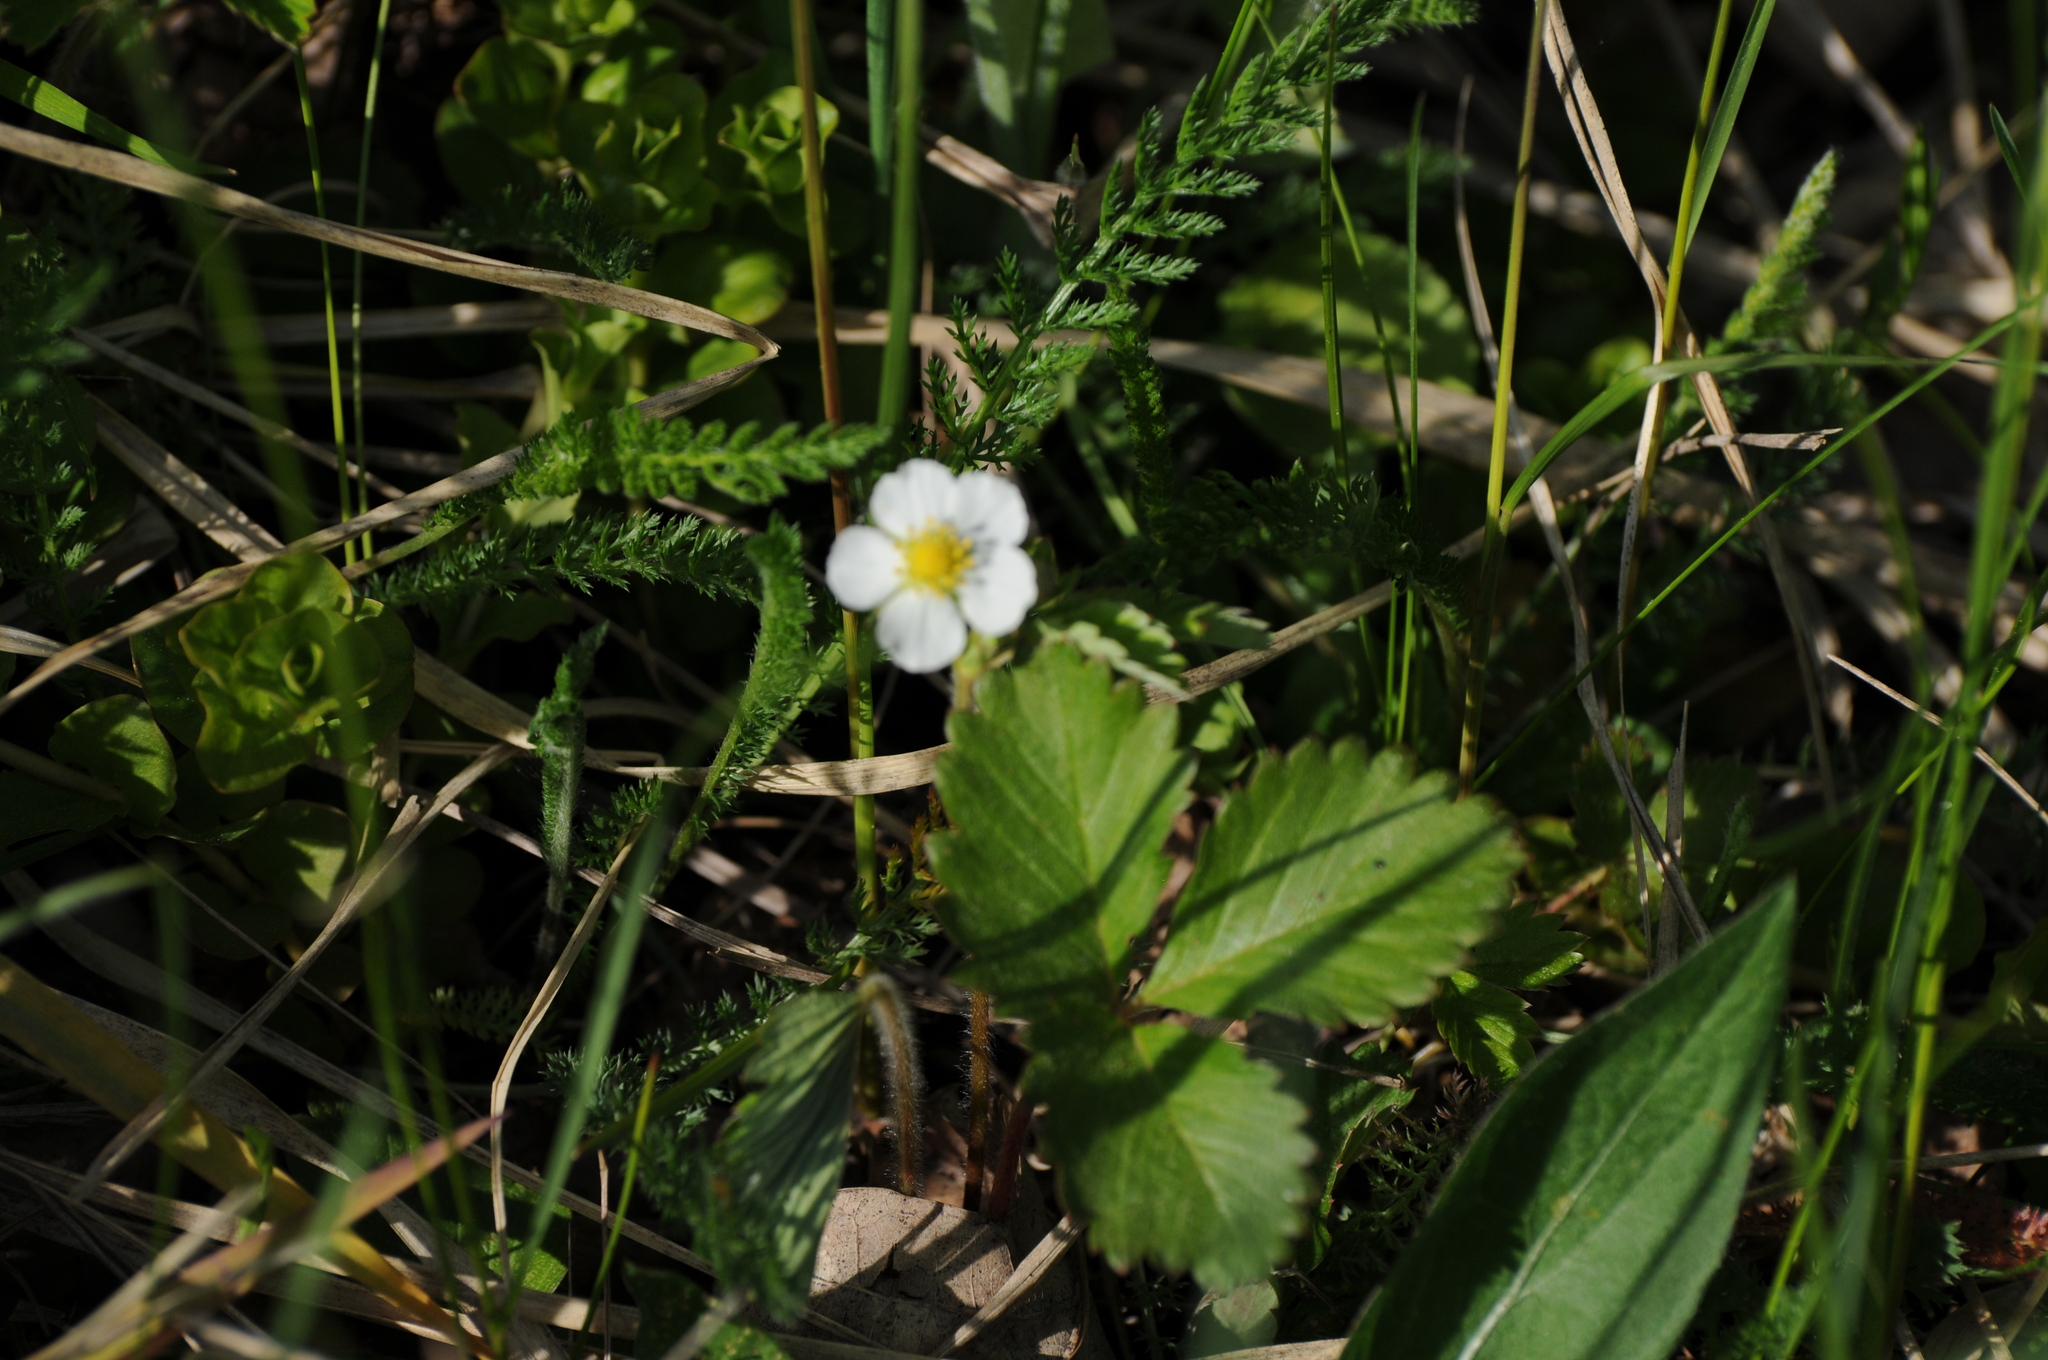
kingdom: Plantae
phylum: Tracheophyta
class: Magnoliopsida
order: Rosales
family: Rosaceae
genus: Fragaria
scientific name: Fragaria vesca
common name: Wild strawberry
